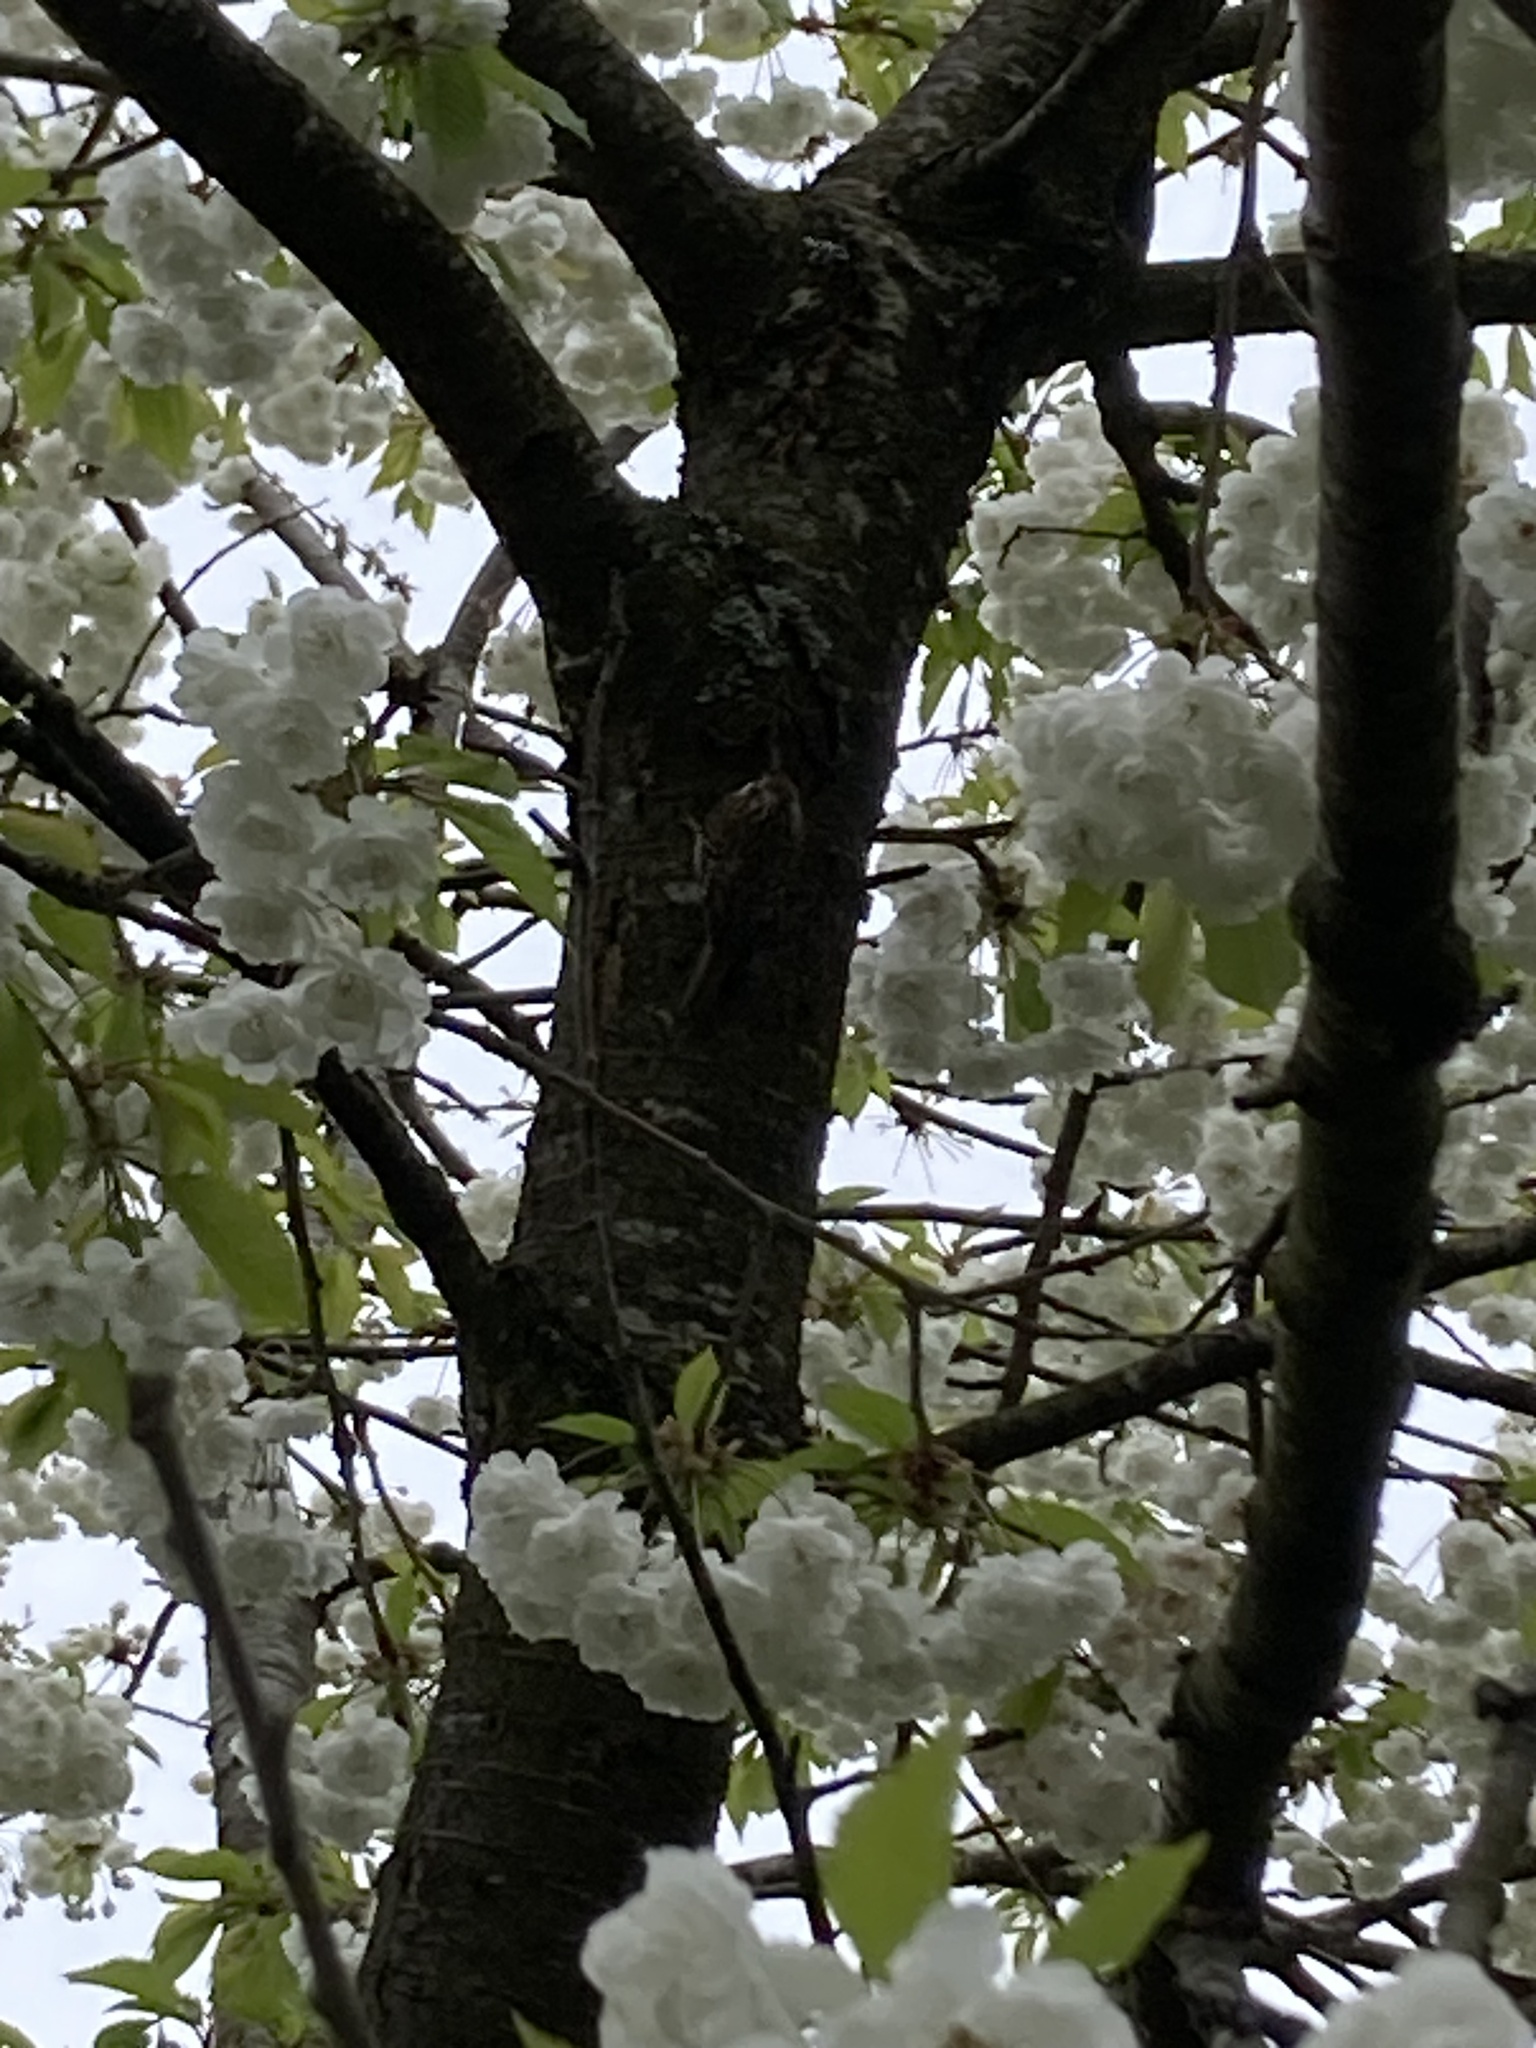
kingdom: Animalia
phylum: Chordata
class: Aves
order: Passeriformes
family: Certhiidae
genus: Certhia
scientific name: Certhia familiaris
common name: Eurasian treecreeper
